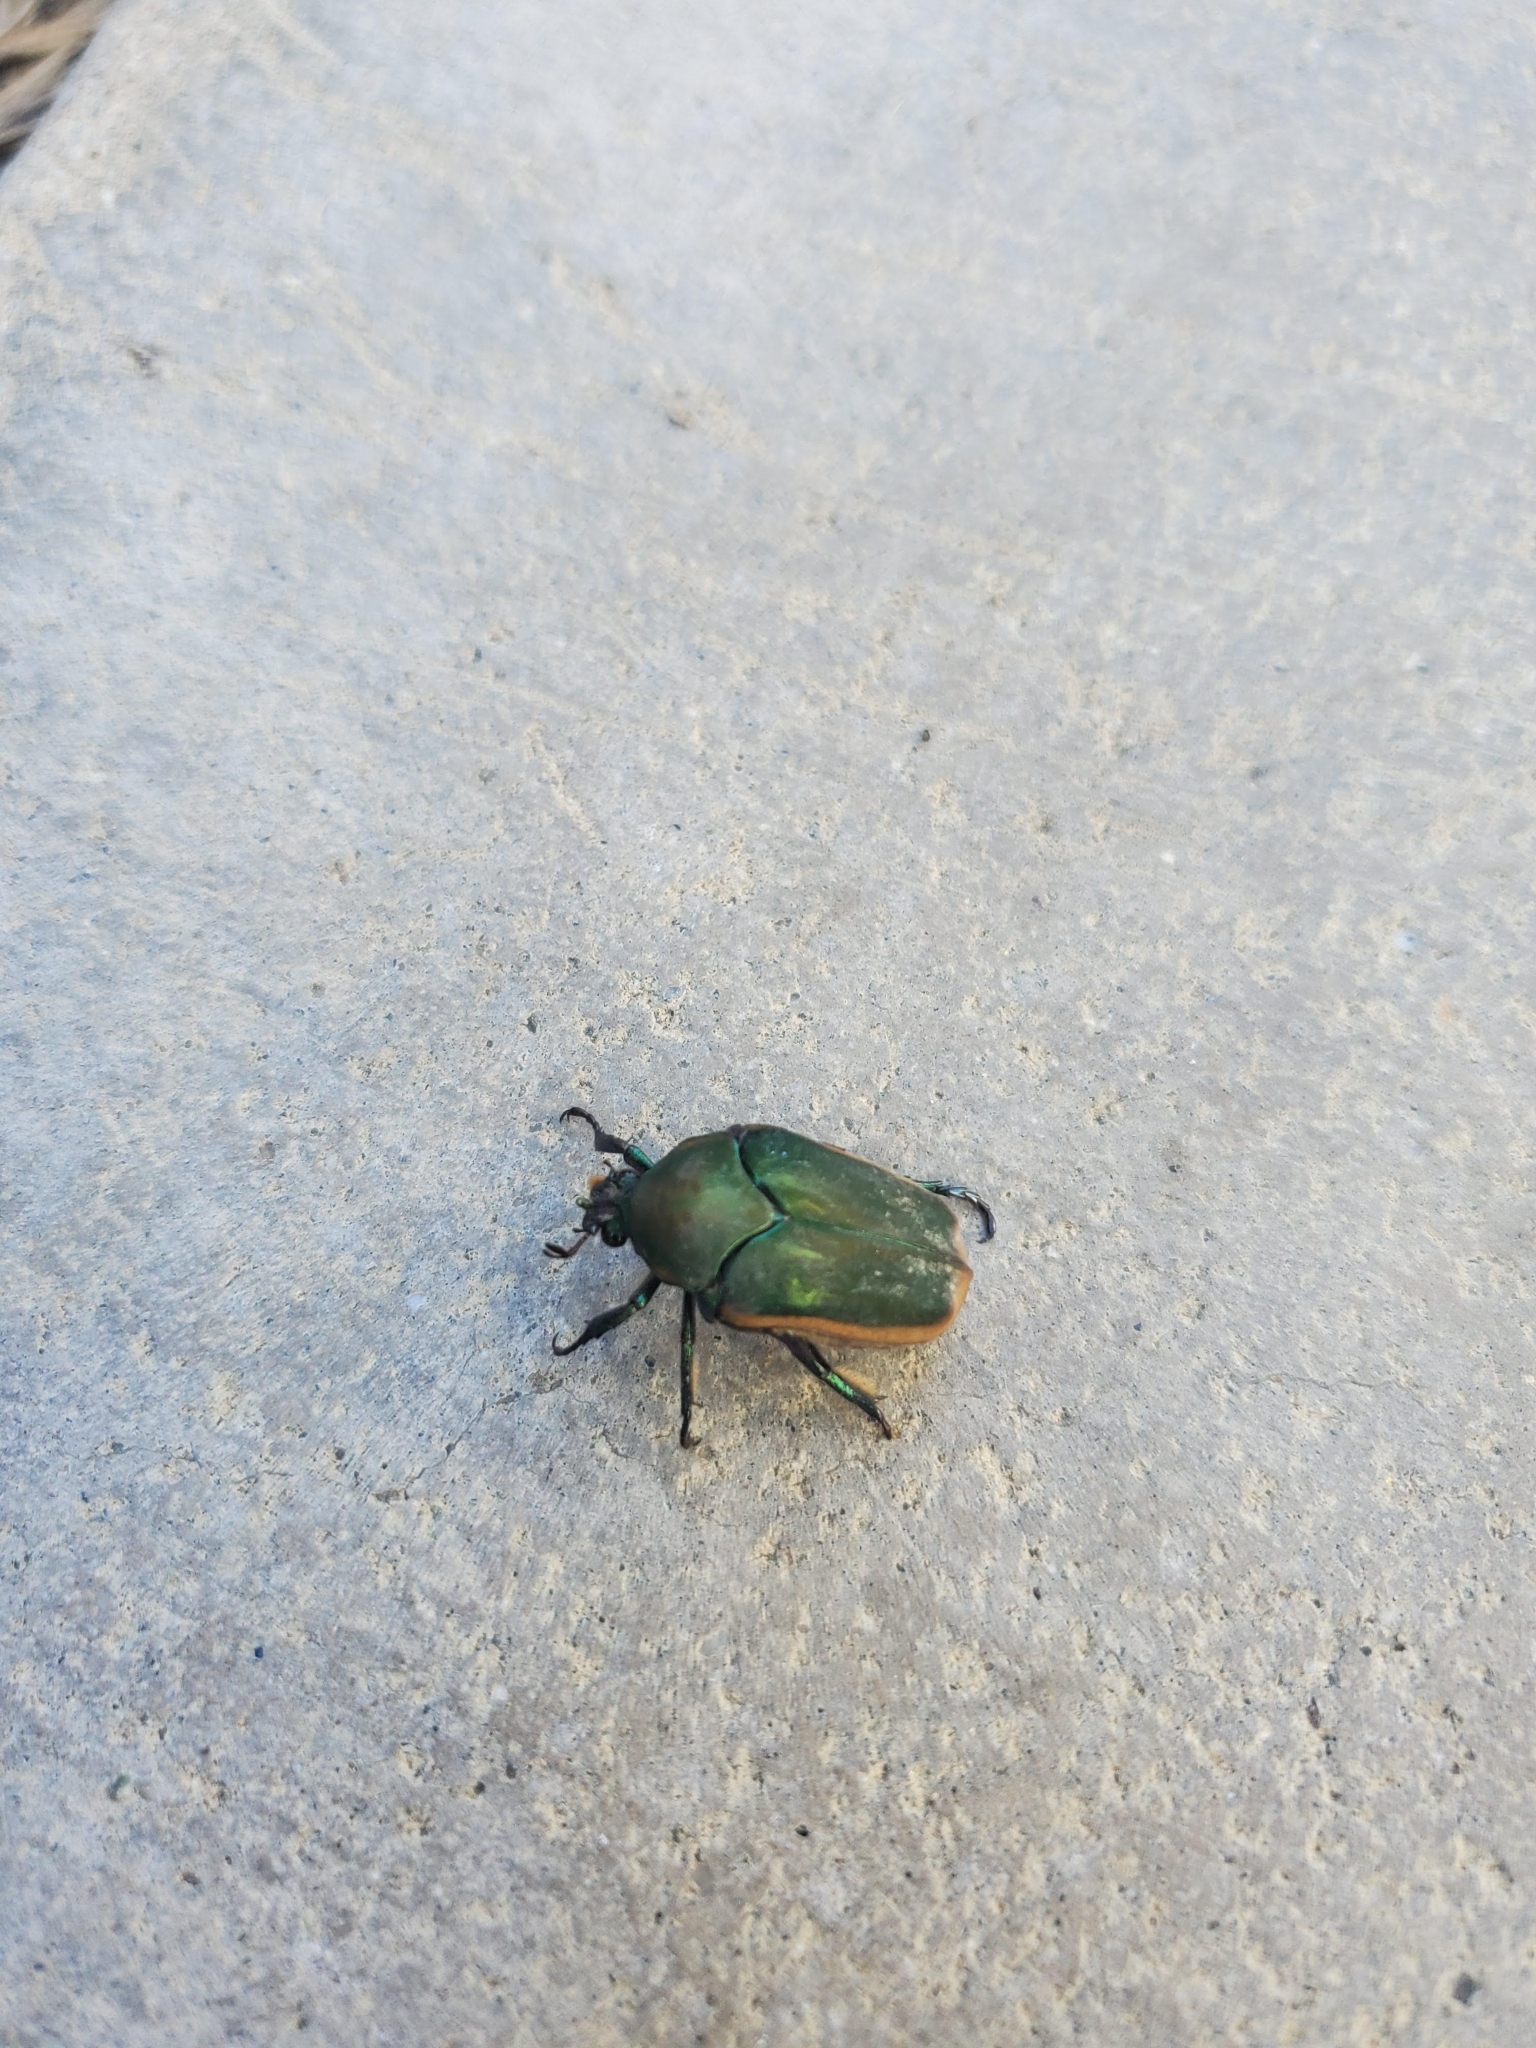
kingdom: Animalia
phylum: Arthropoda
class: Insecta
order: Coleoptera
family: Scarabaeidae
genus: Cotinis
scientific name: Cotinis mutabilis
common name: Figeater beetle
